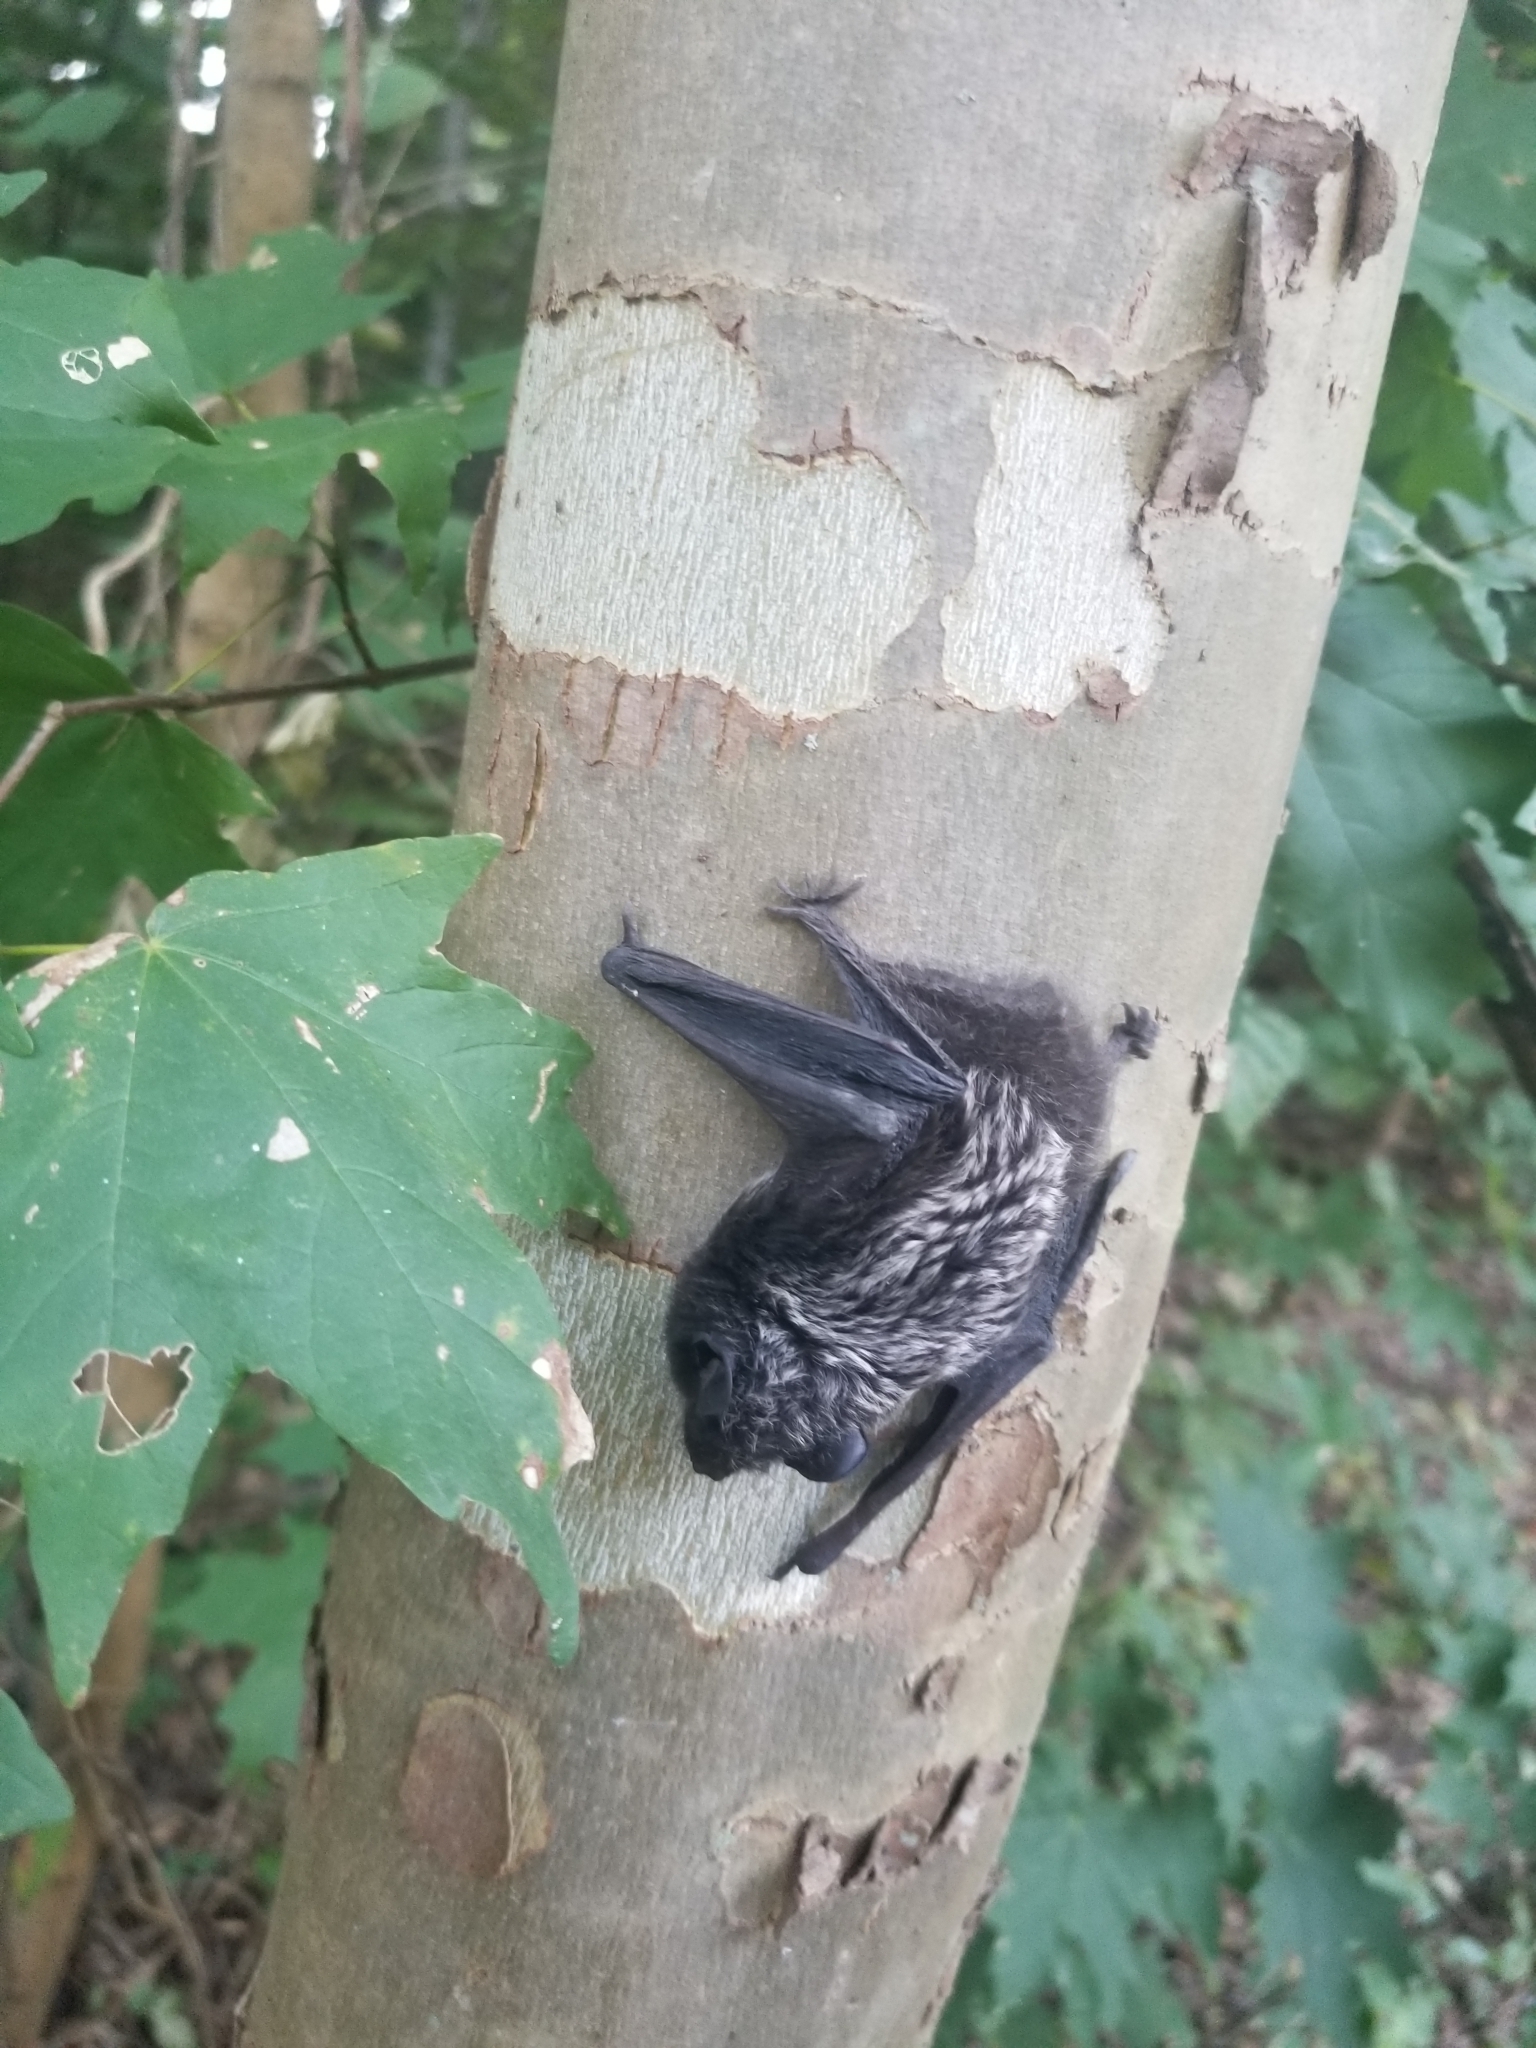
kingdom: Animalia
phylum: Chordata
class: Mammalia
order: Chiroptera
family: Vespertilionidae
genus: Lasionycteris
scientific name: Lasionycteris noctivagans
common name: Silver-haired bat
